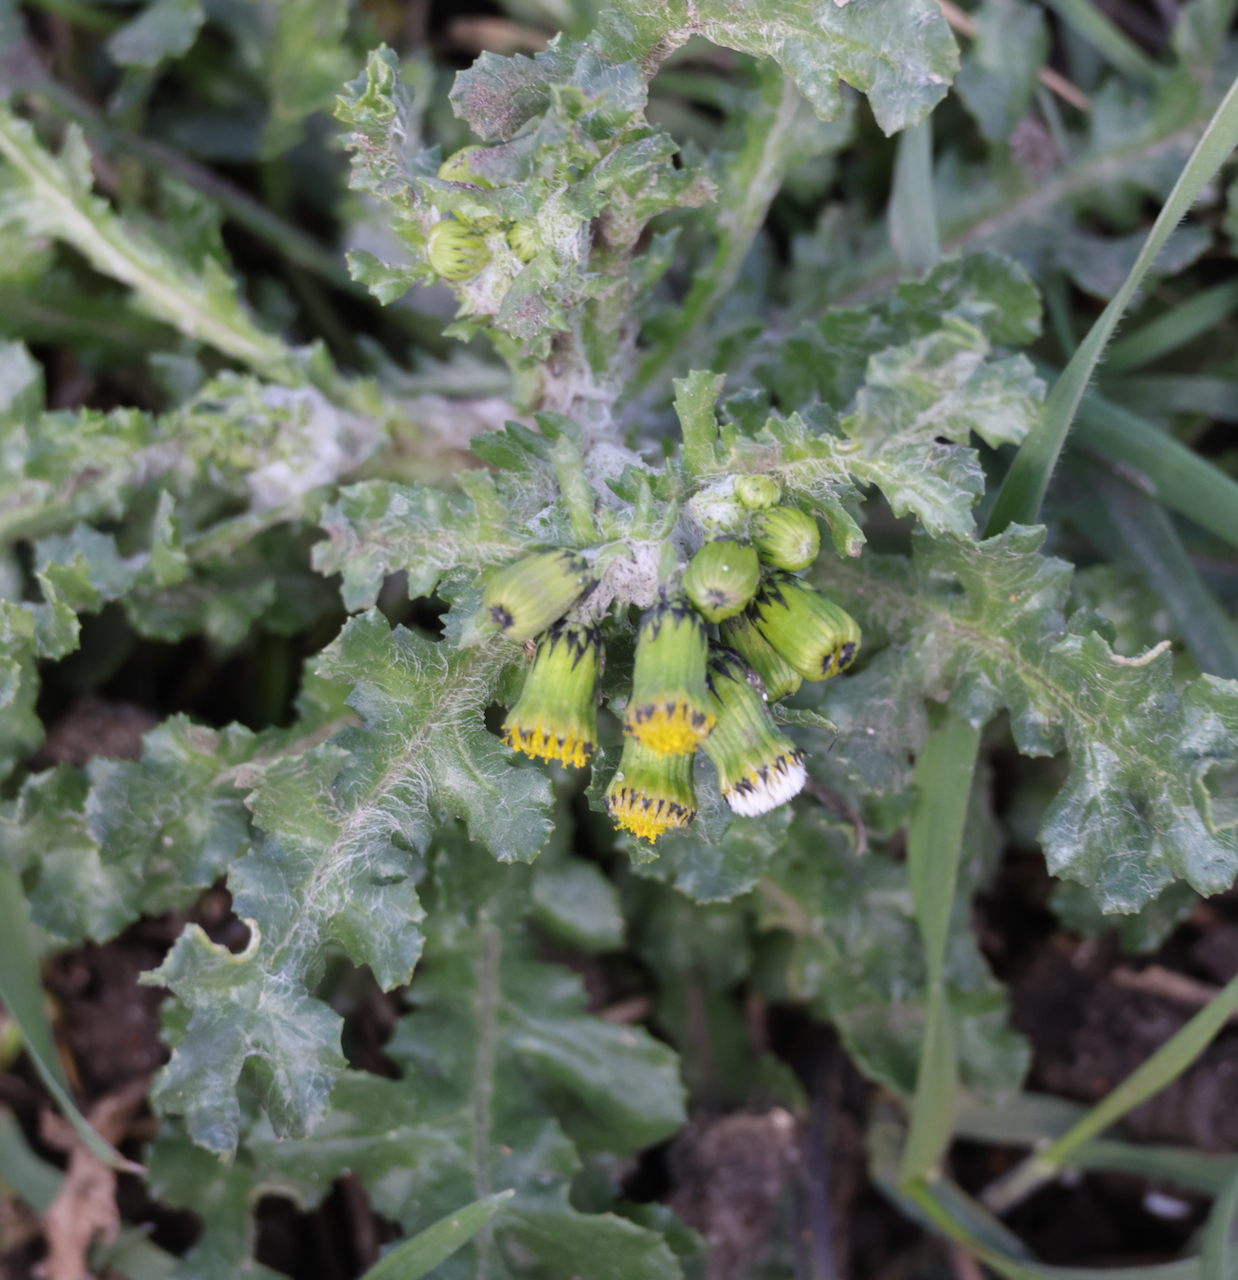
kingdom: Plantae
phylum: Tracheophyta
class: Magnoliopsida
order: Asterales
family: Asteraceae
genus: Senecio
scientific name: Senecio vulgaris
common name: Old-man-in-the-spring
